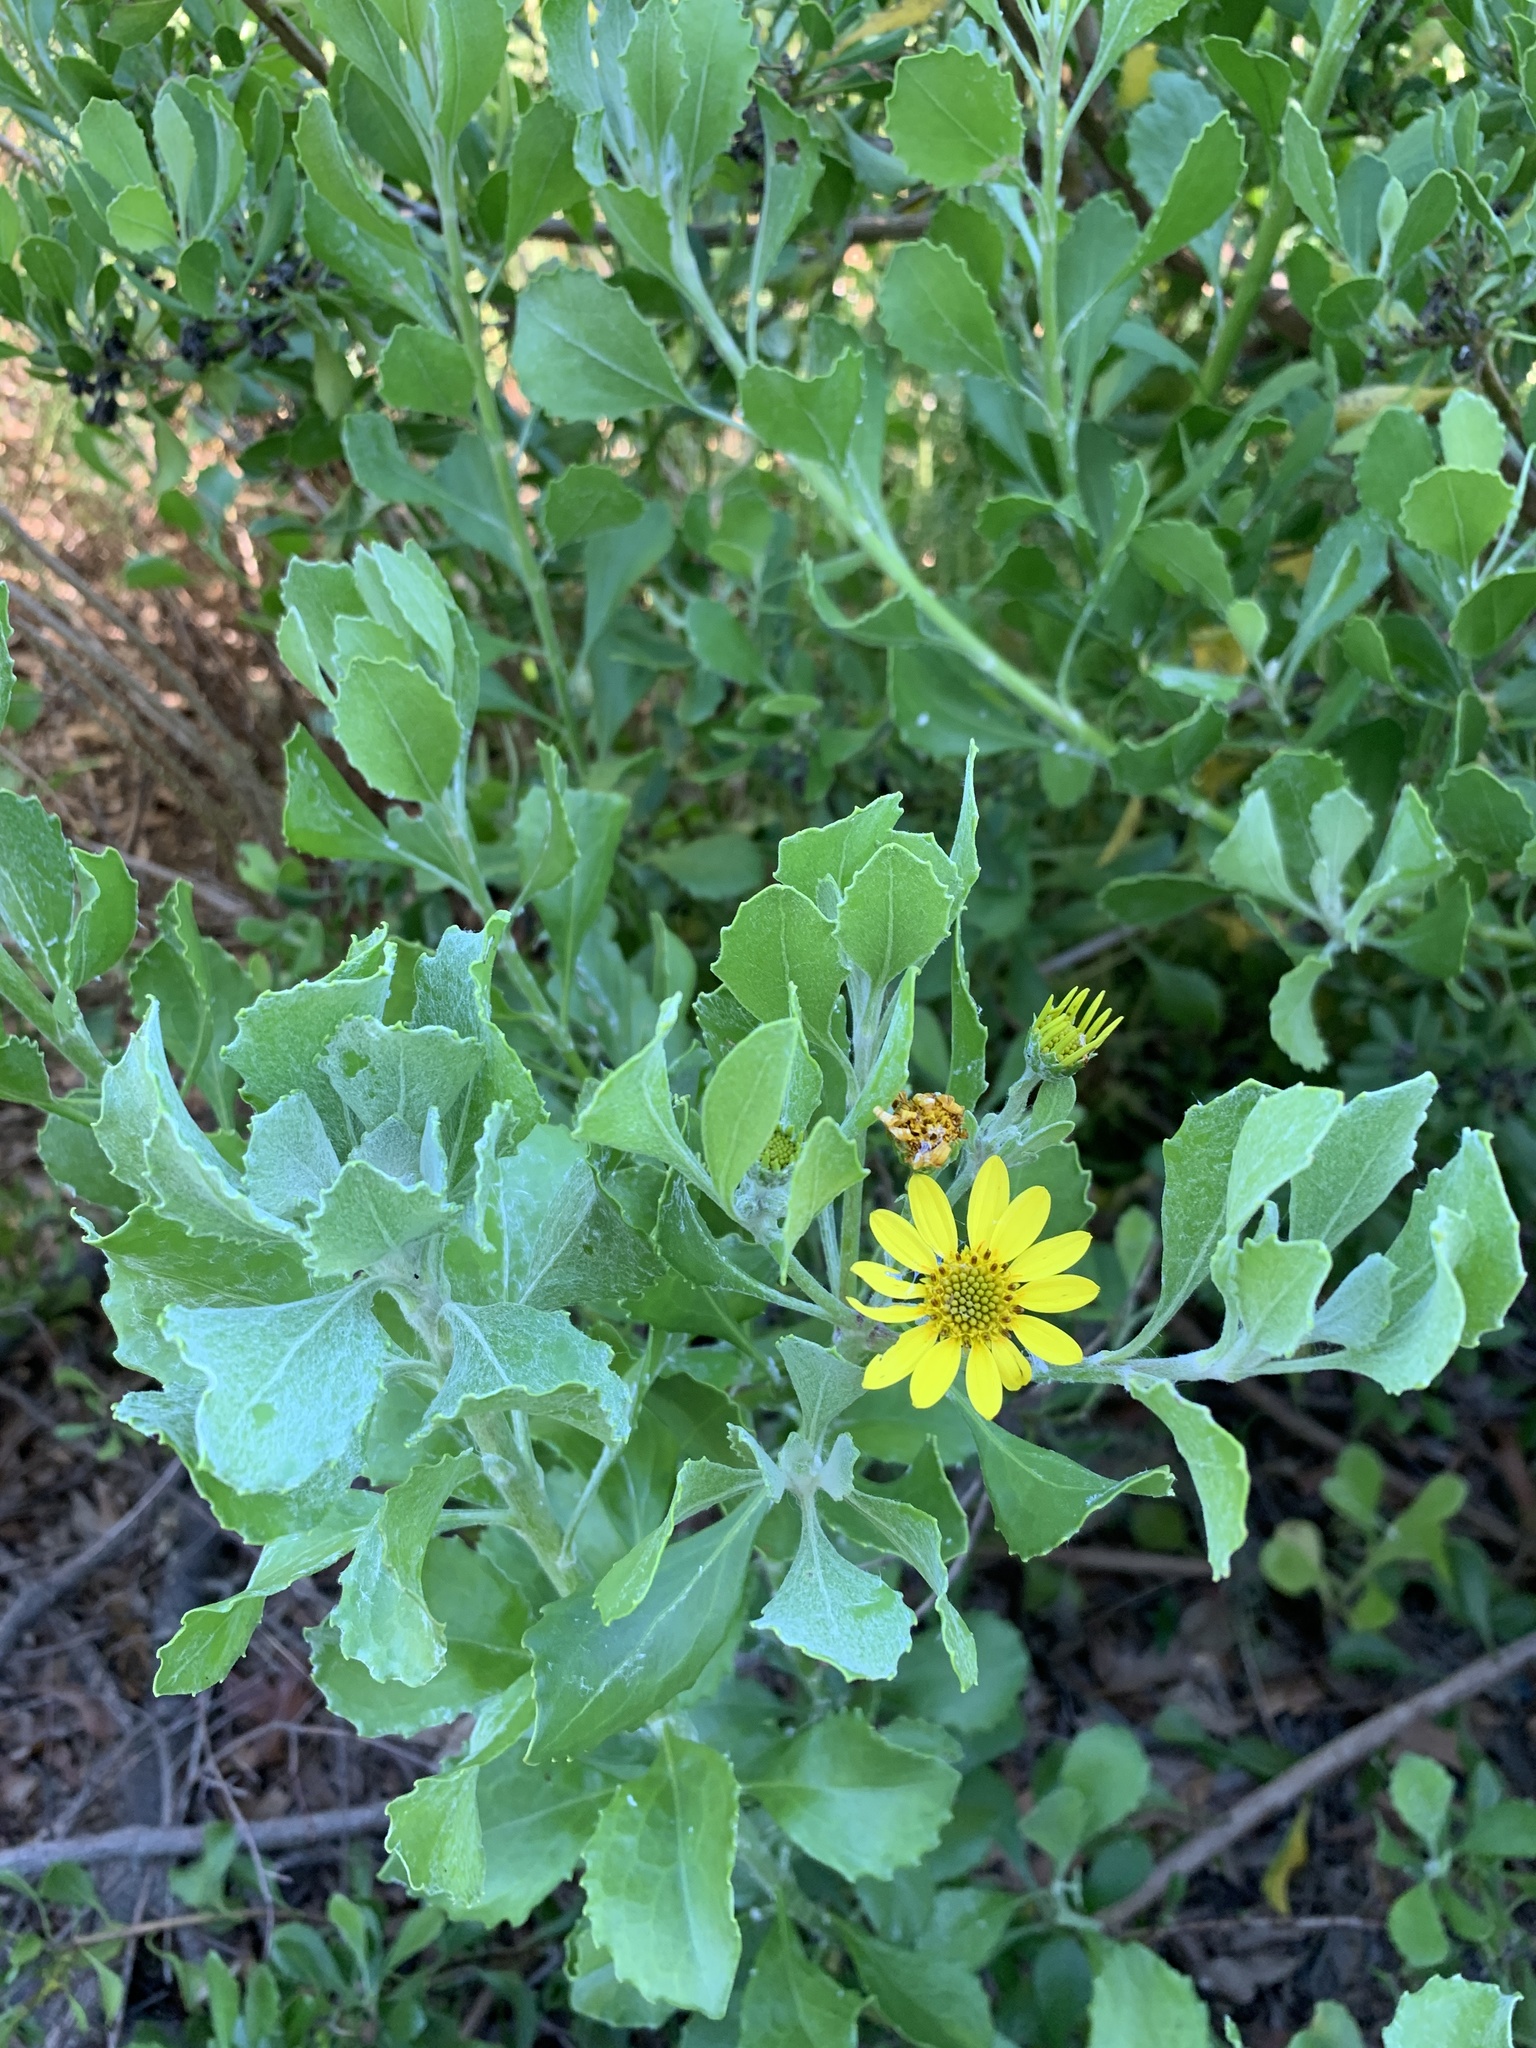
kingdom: Plantae
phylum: Tracheophyta
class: Magnoliopsida
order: Asterales
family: Asteraceae
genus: Osteospermum
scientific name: Osteospermum moniliferum
